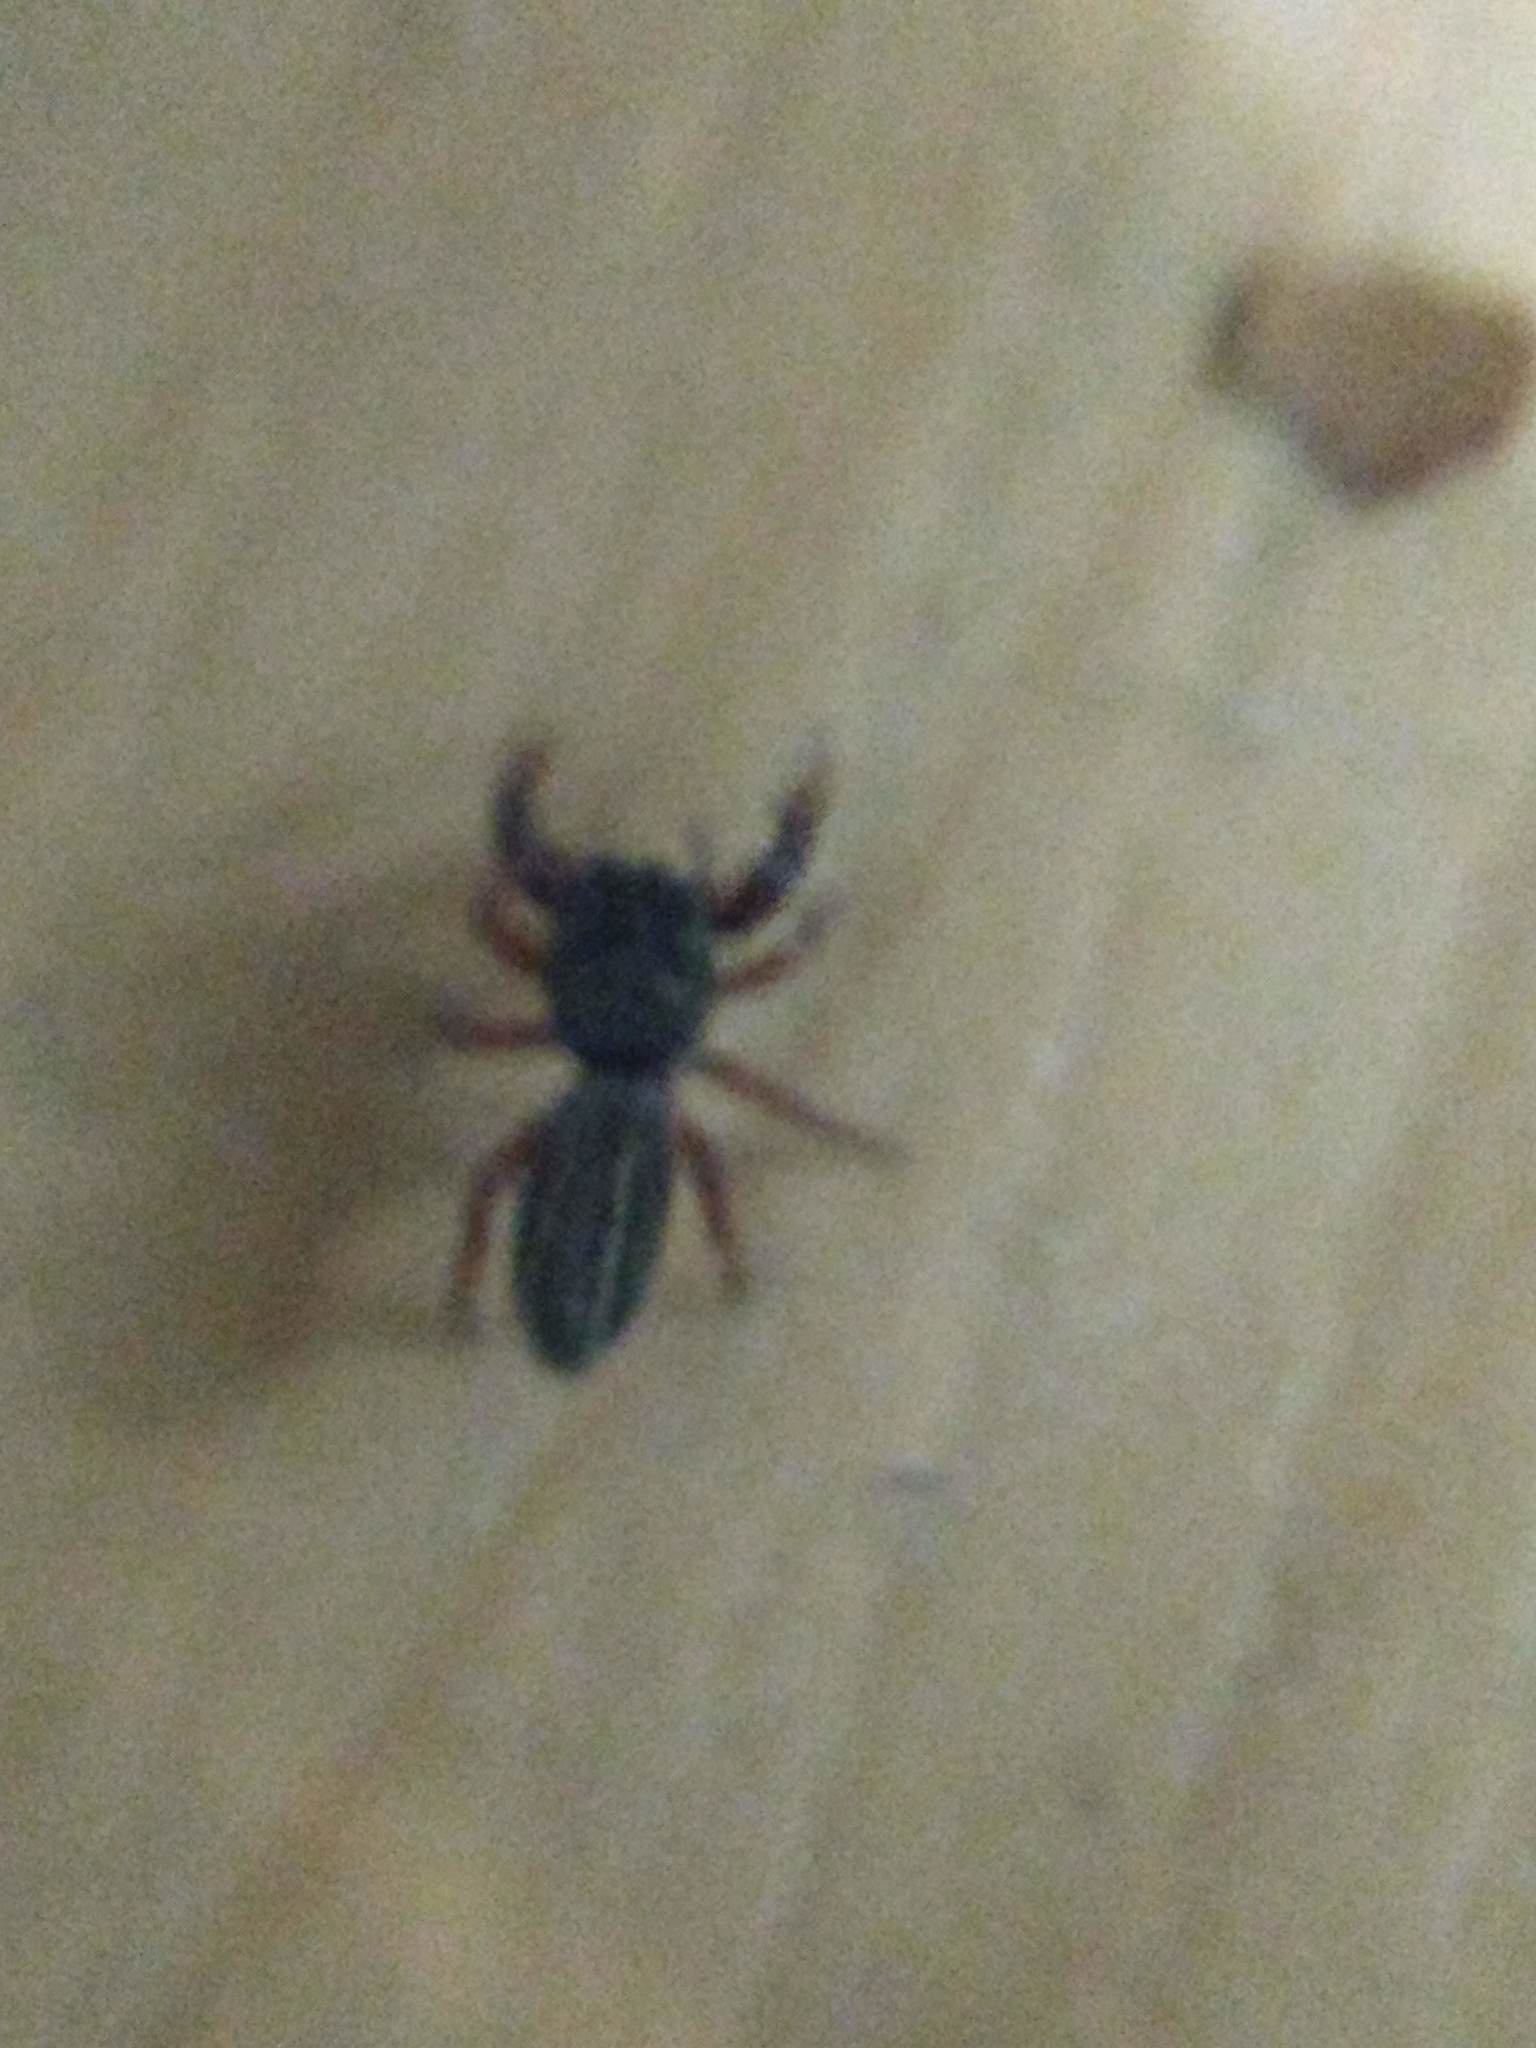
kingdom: Animalia
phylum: Arthropoda
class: Arachnida
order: Araneae
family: Salticidae
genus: Metacyrba
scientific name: Metacyrba taeniola
